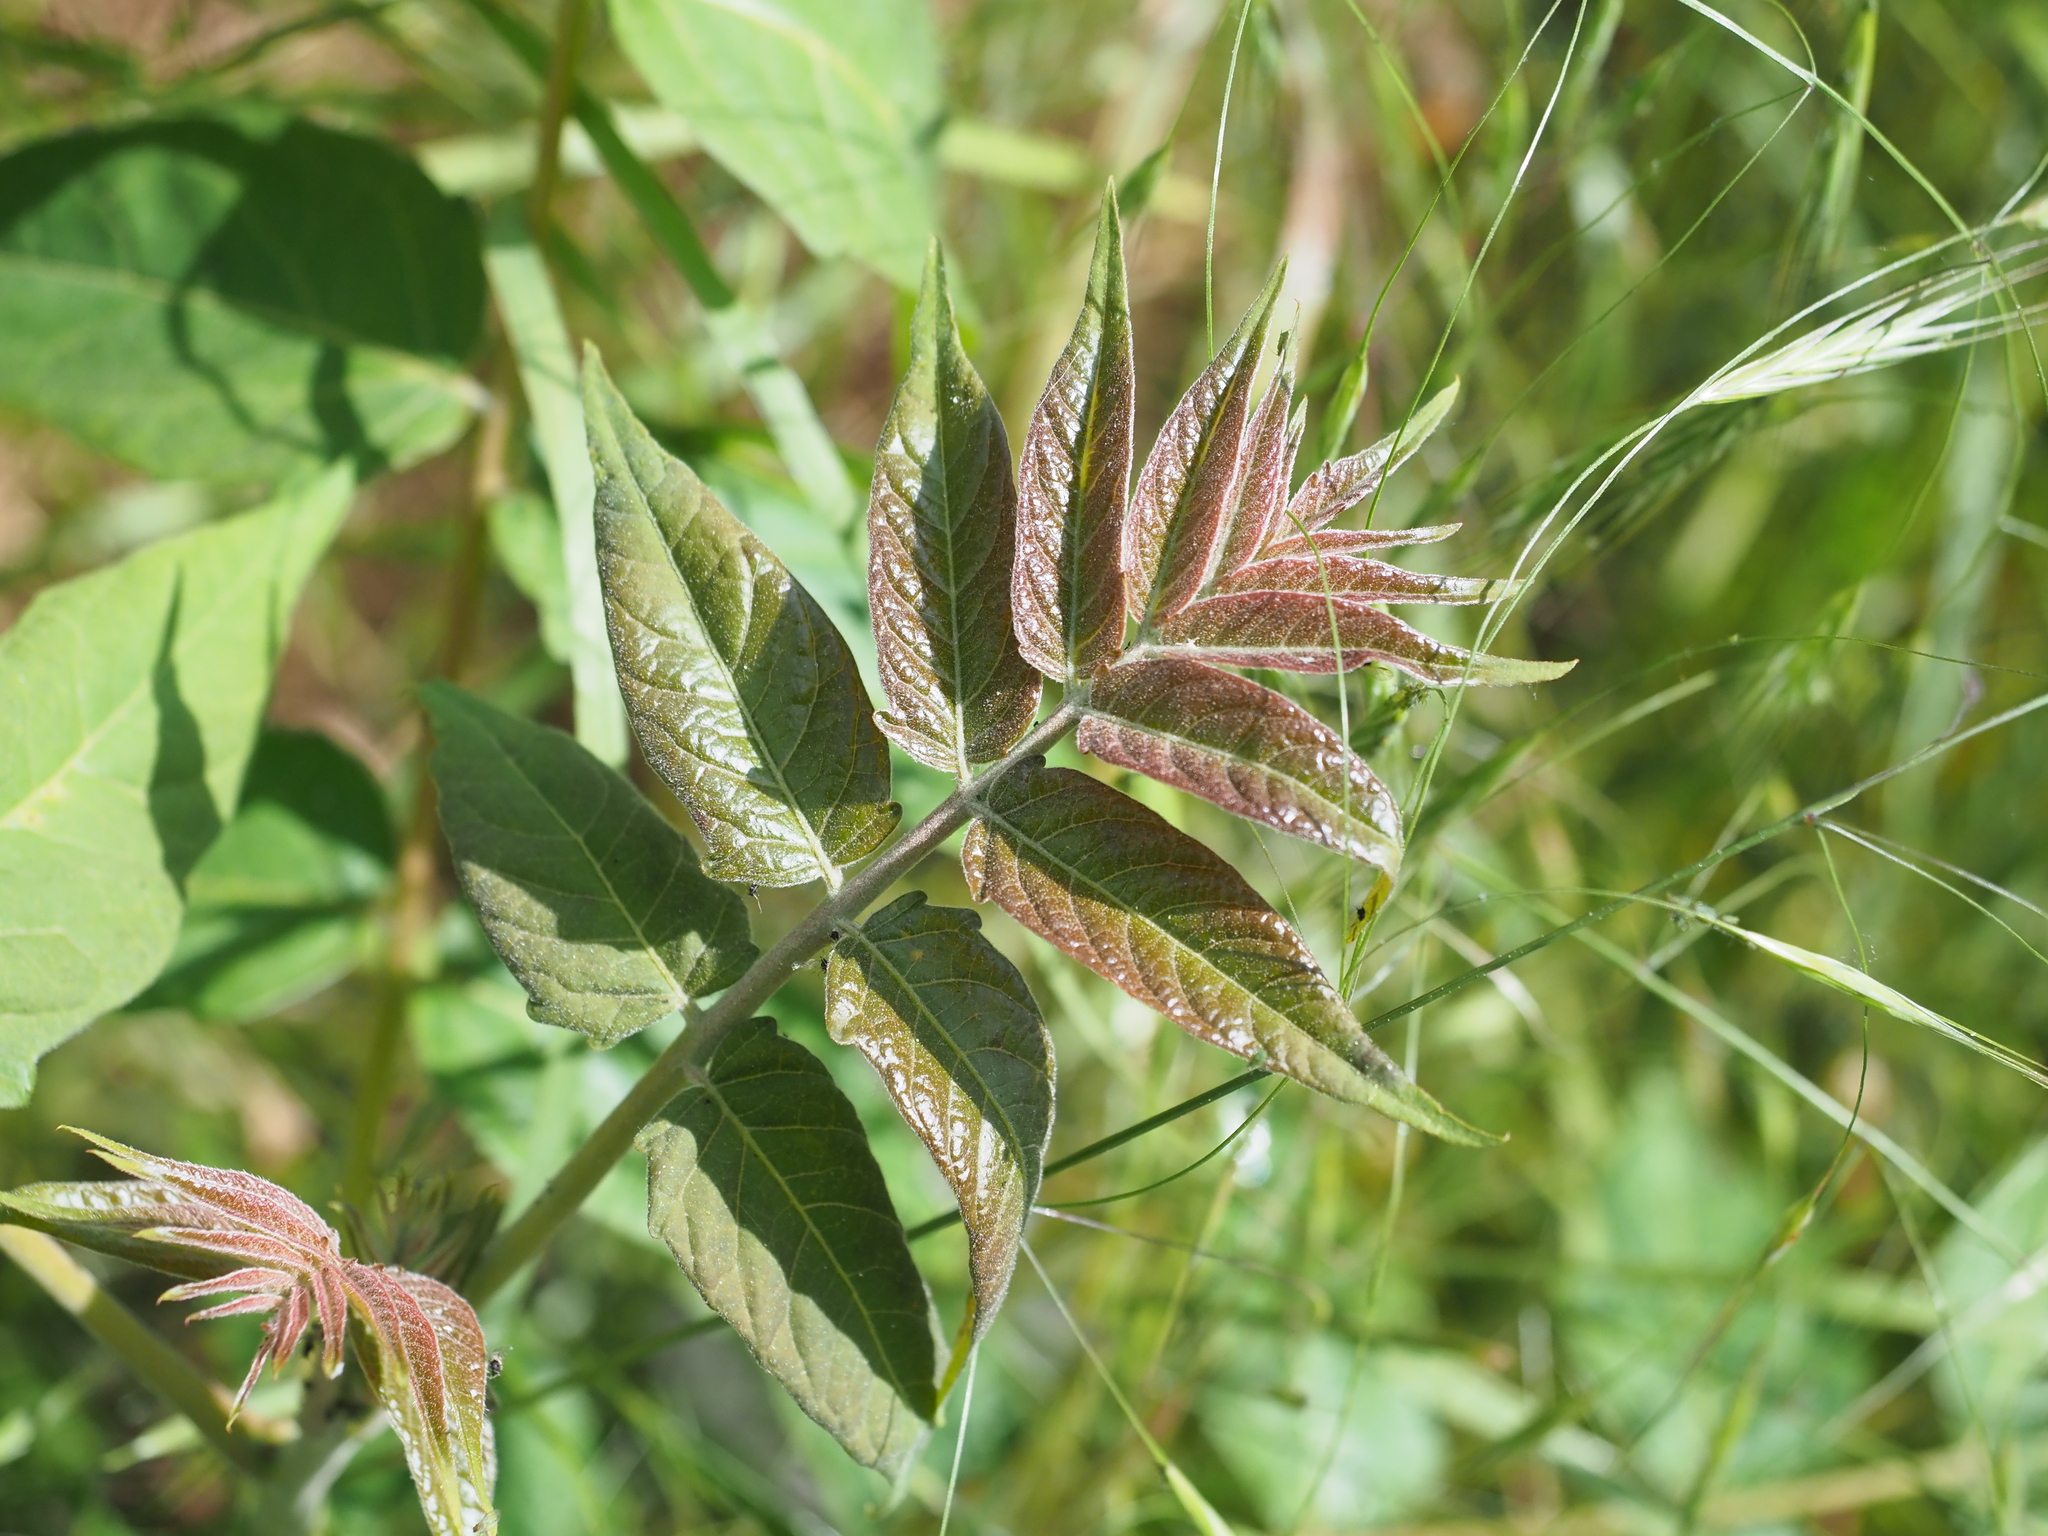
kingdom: Plantae
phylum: Tracheophyta
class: Magnoliopsida
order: Sapindales
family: Simaroubaceae
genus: Ailanthus
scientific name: Ailanthus altissima
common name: Tree-of-heaven
